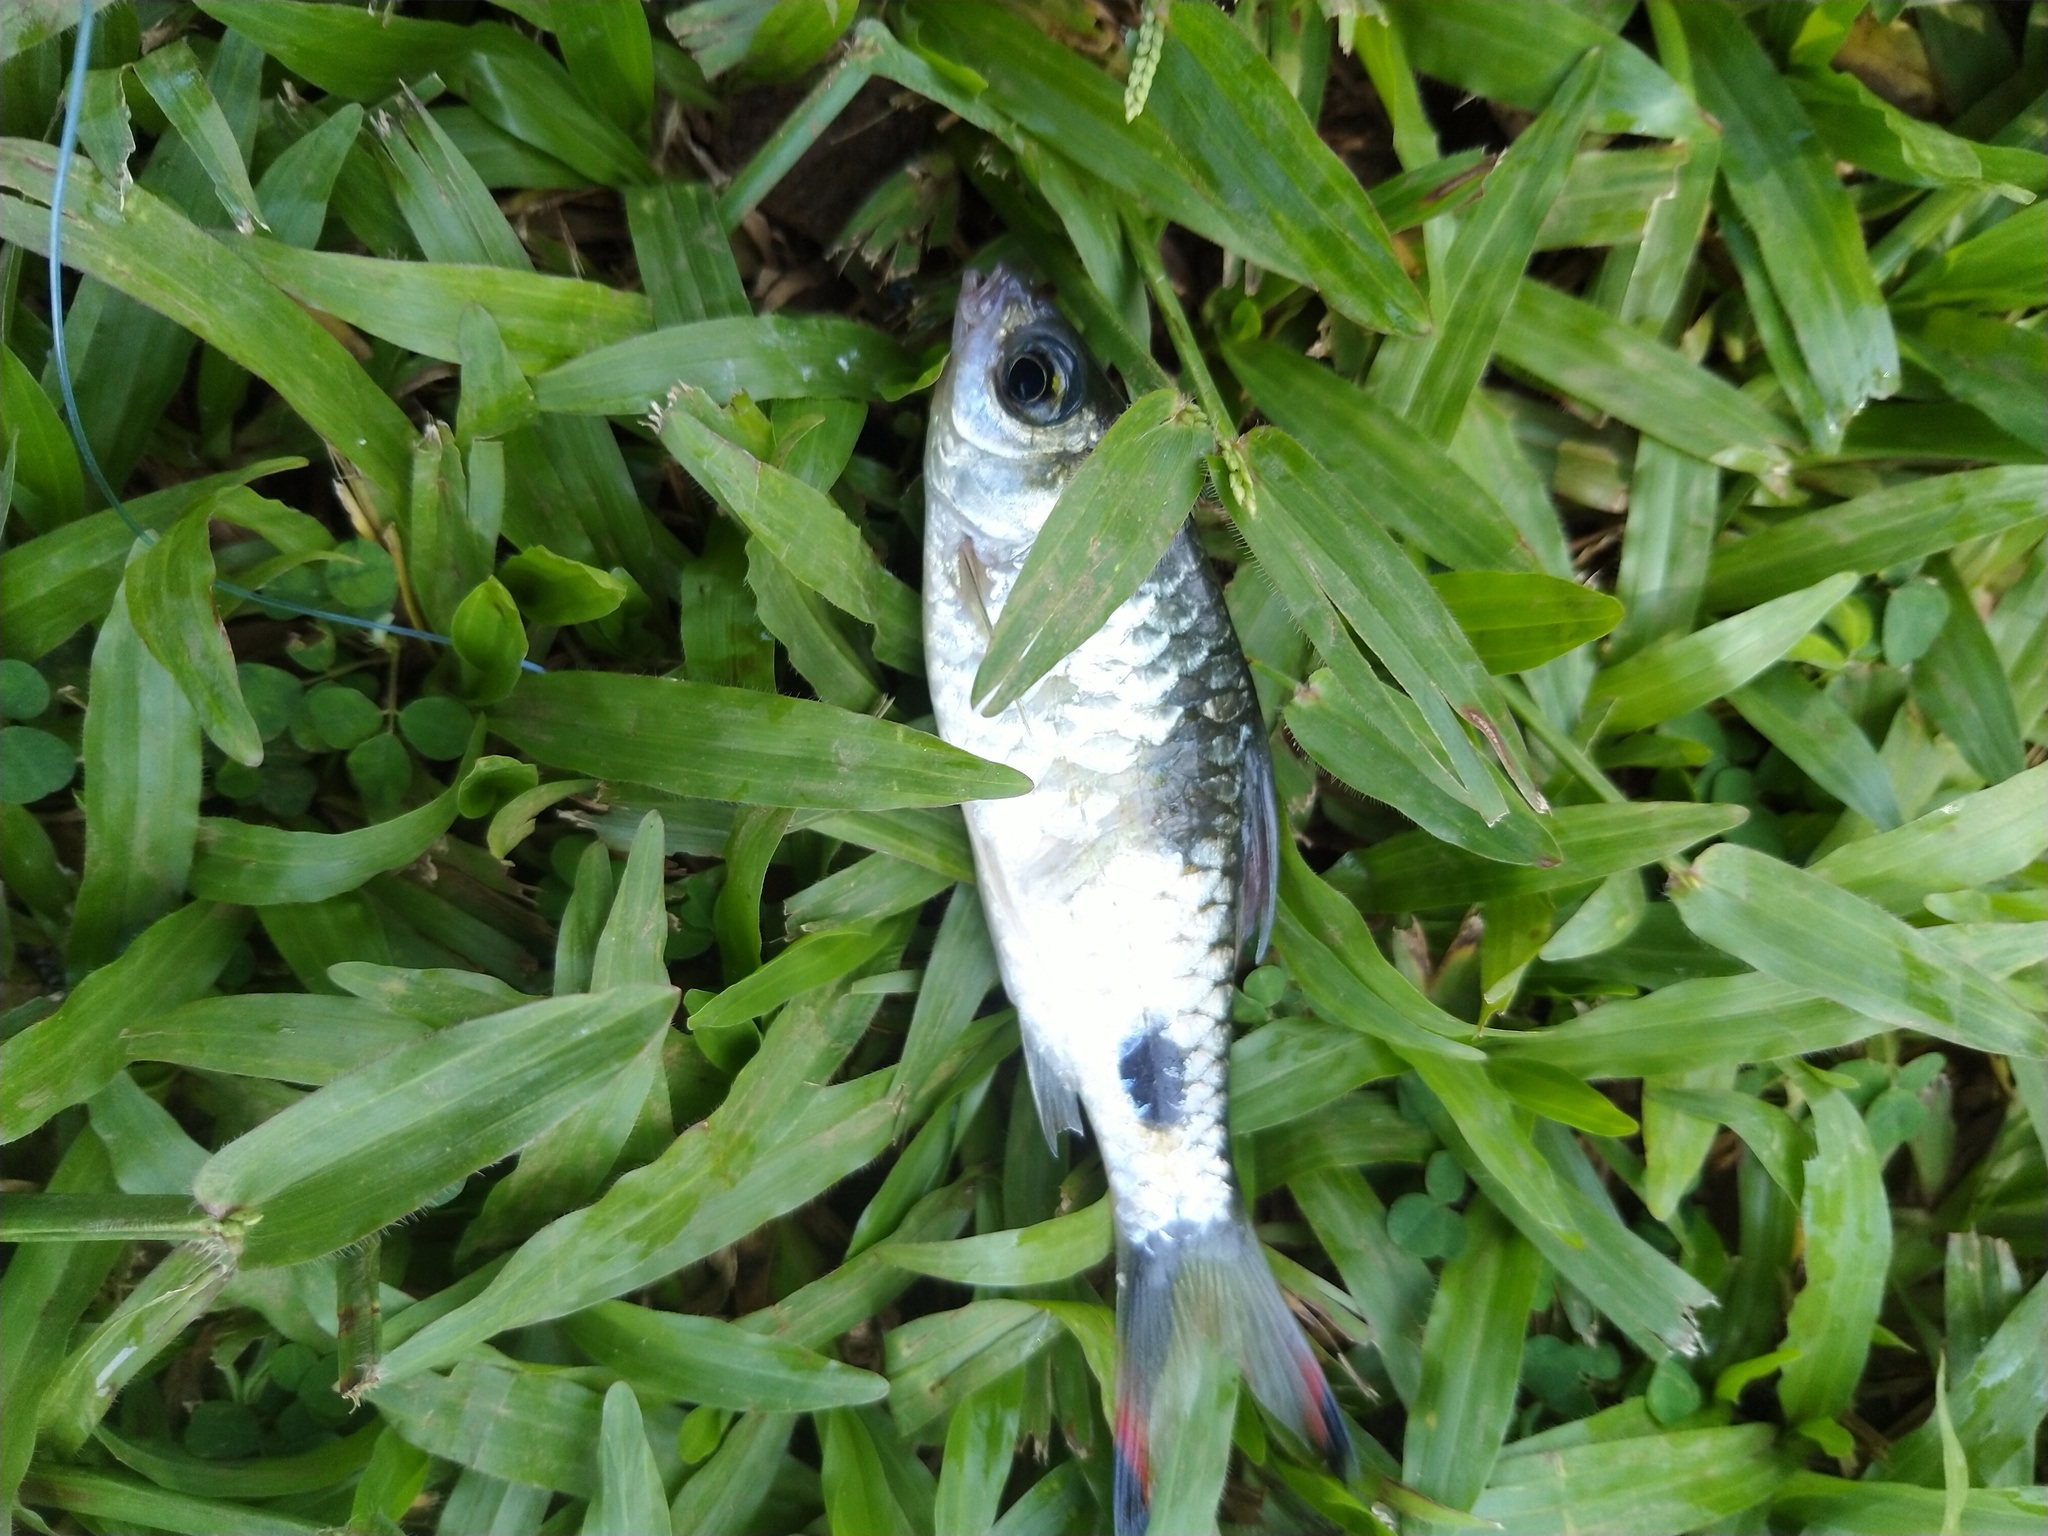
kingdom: Animalia
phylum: Chordata
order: Cypriniformes
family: Cyprinidae
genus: Dawkinsia
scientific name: Dawkinsia filamentosa
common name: Filament barb
